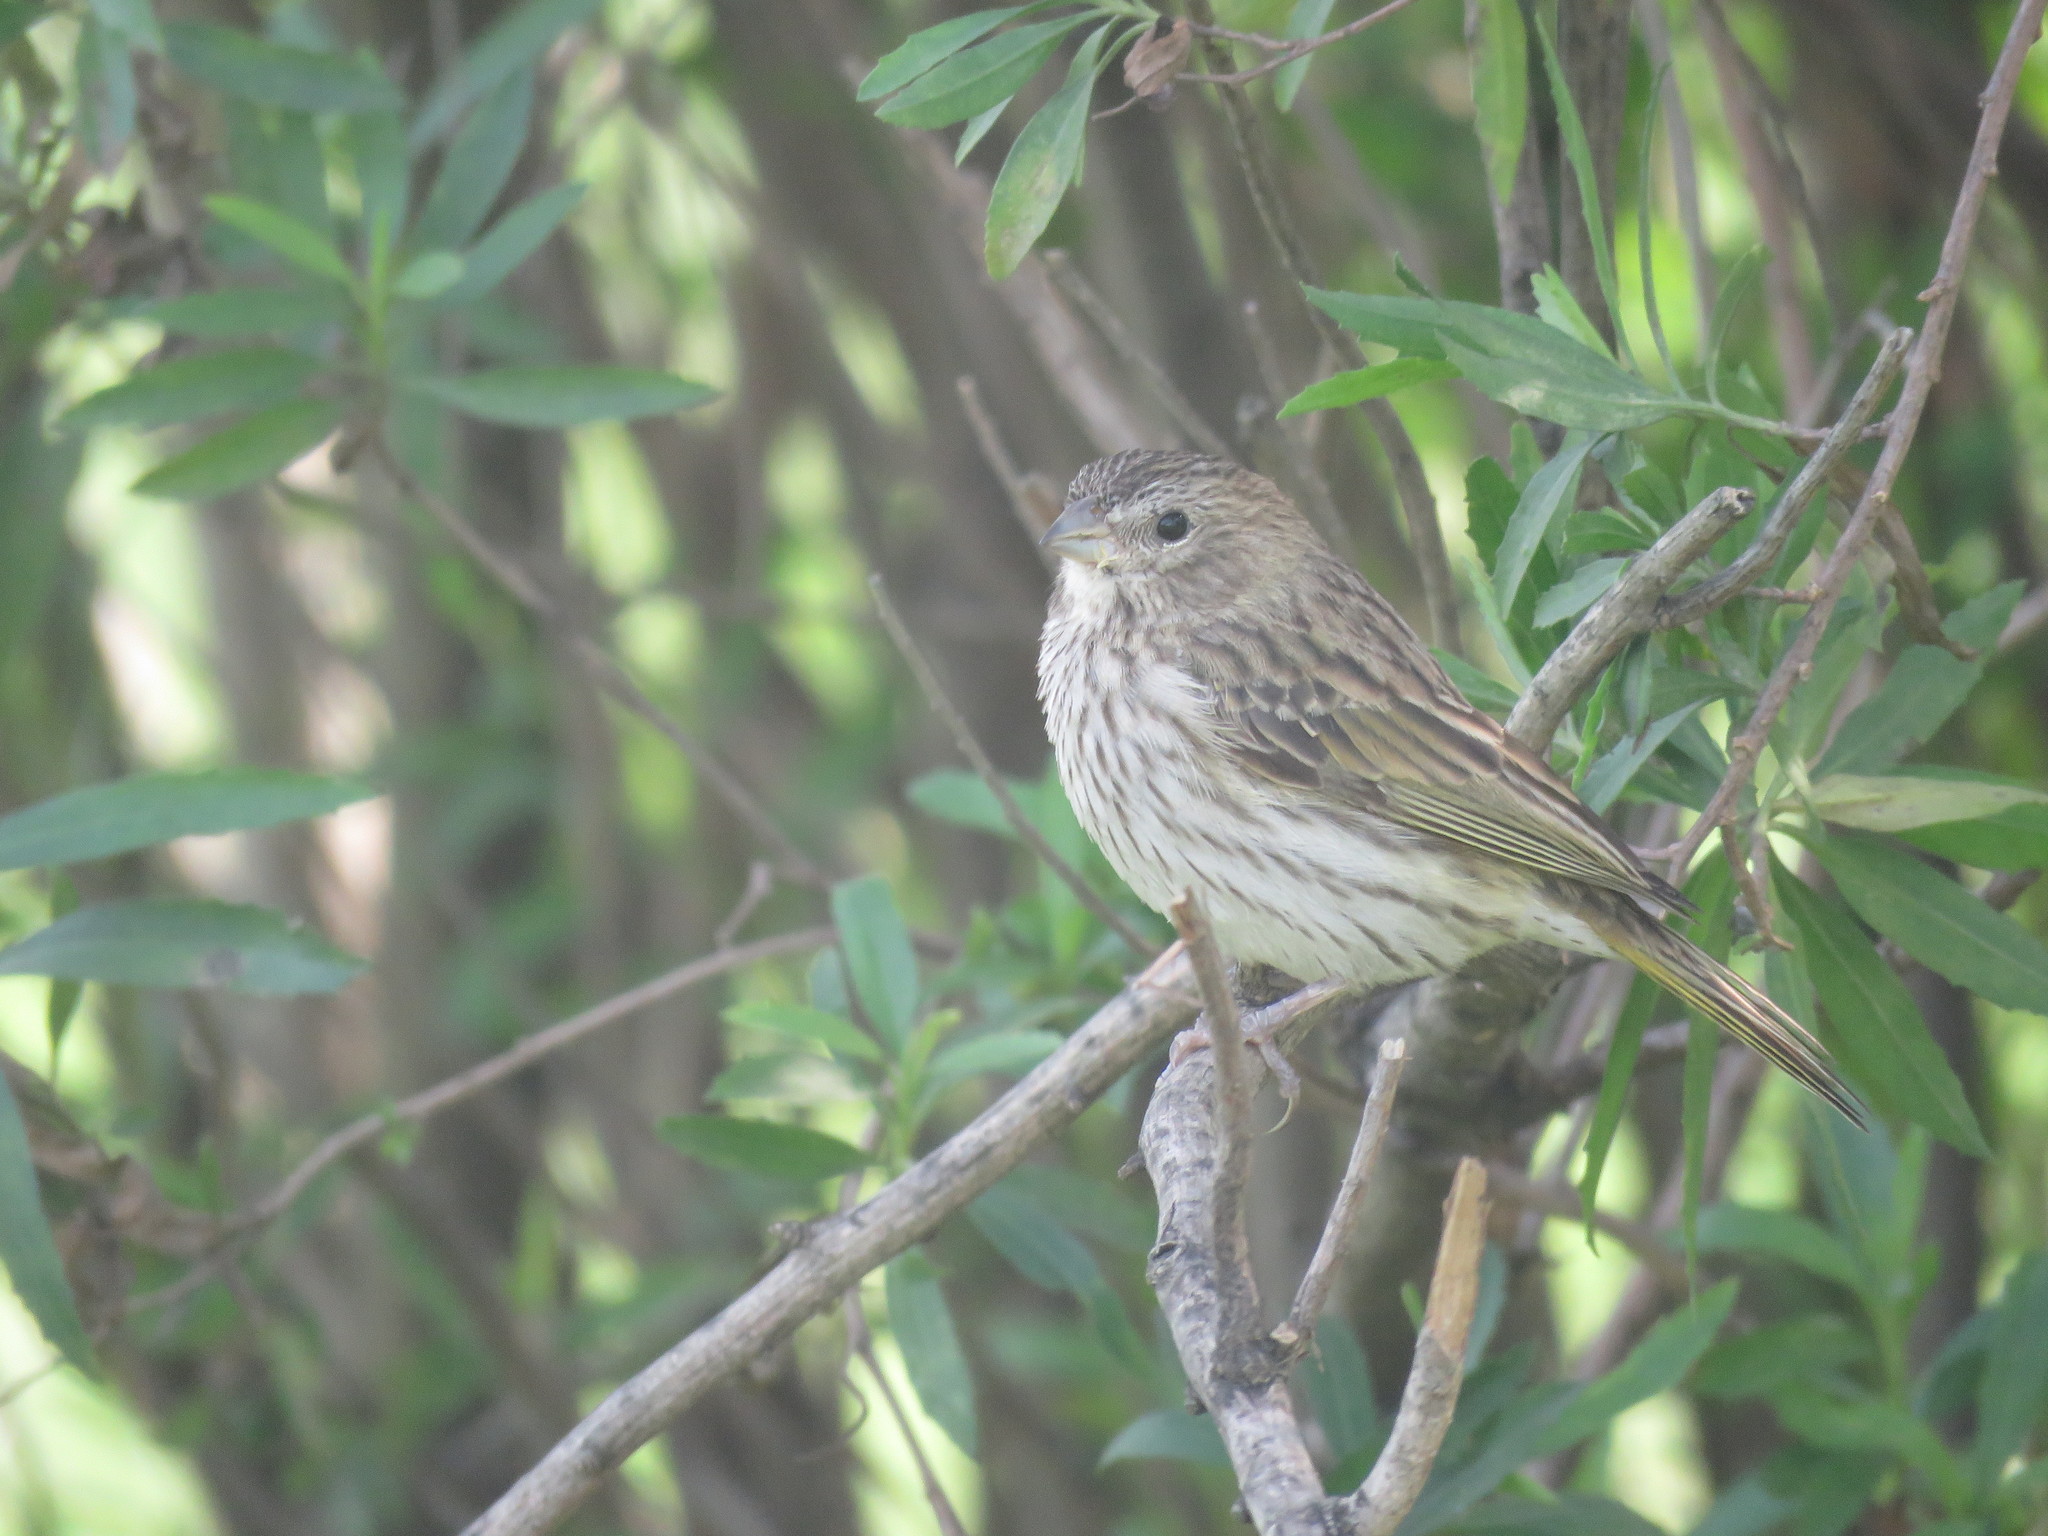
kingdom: Animalia
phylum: Chordata
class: Aves
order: Passeriformes
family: Thraupidae
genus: Sicalis
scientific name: Sicalis flaveola
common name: Saffron finch
